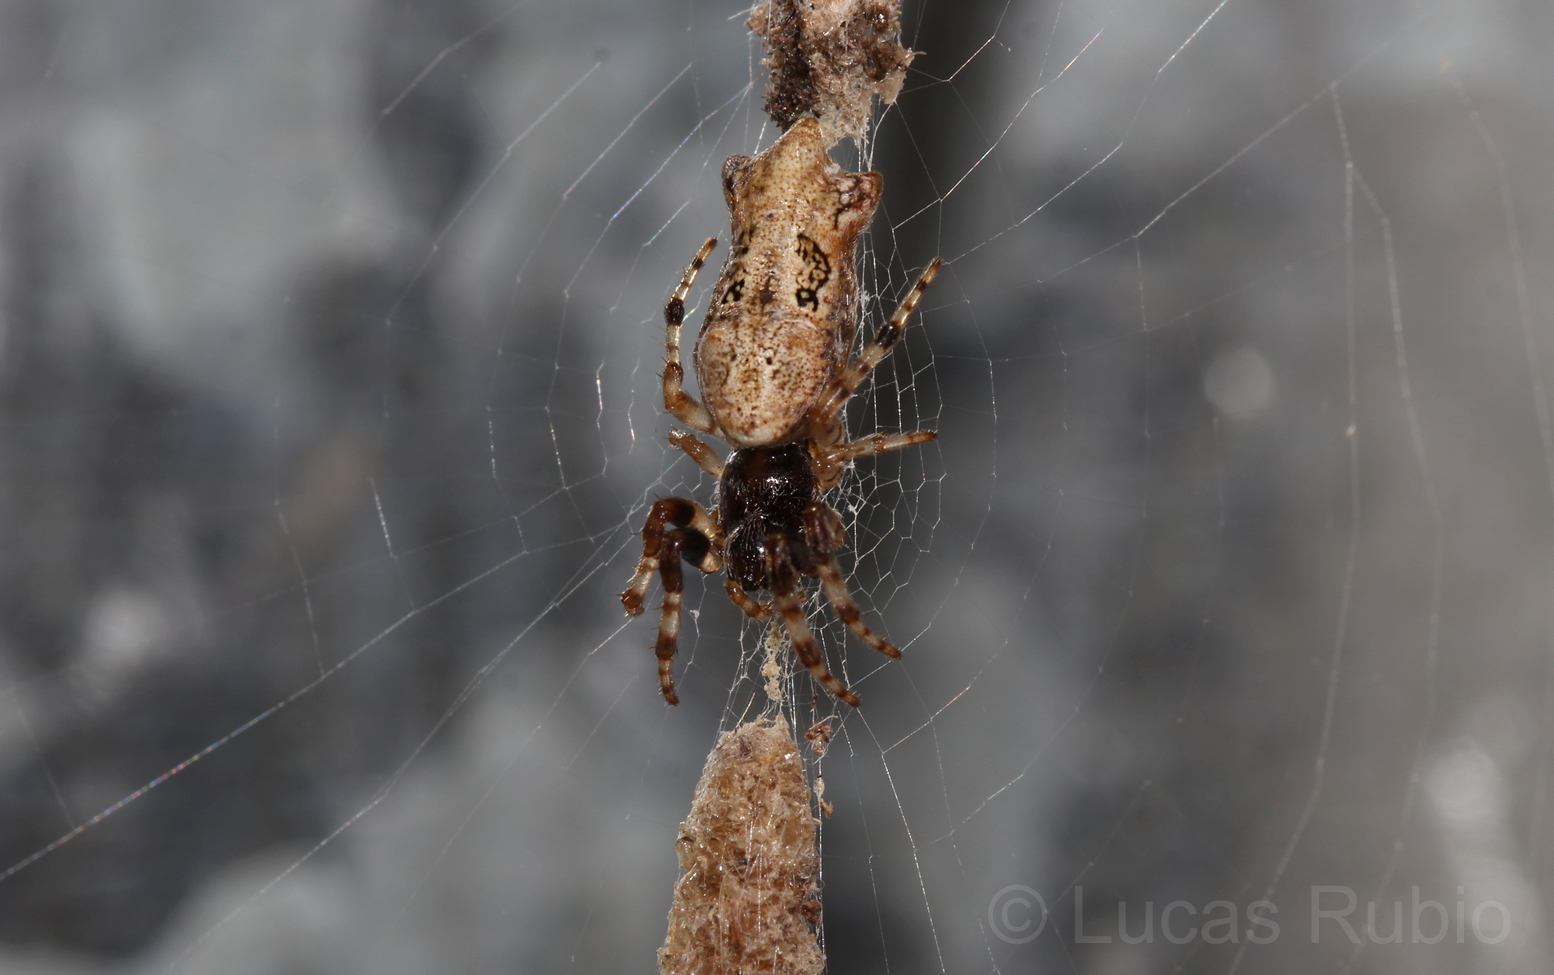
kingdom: Animalia
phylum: Arthropoda
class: Arachnida
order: Araneae
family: Araneidae
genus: Cyclosa
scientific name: Cyclosa bifurcata
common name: Orb weavers
